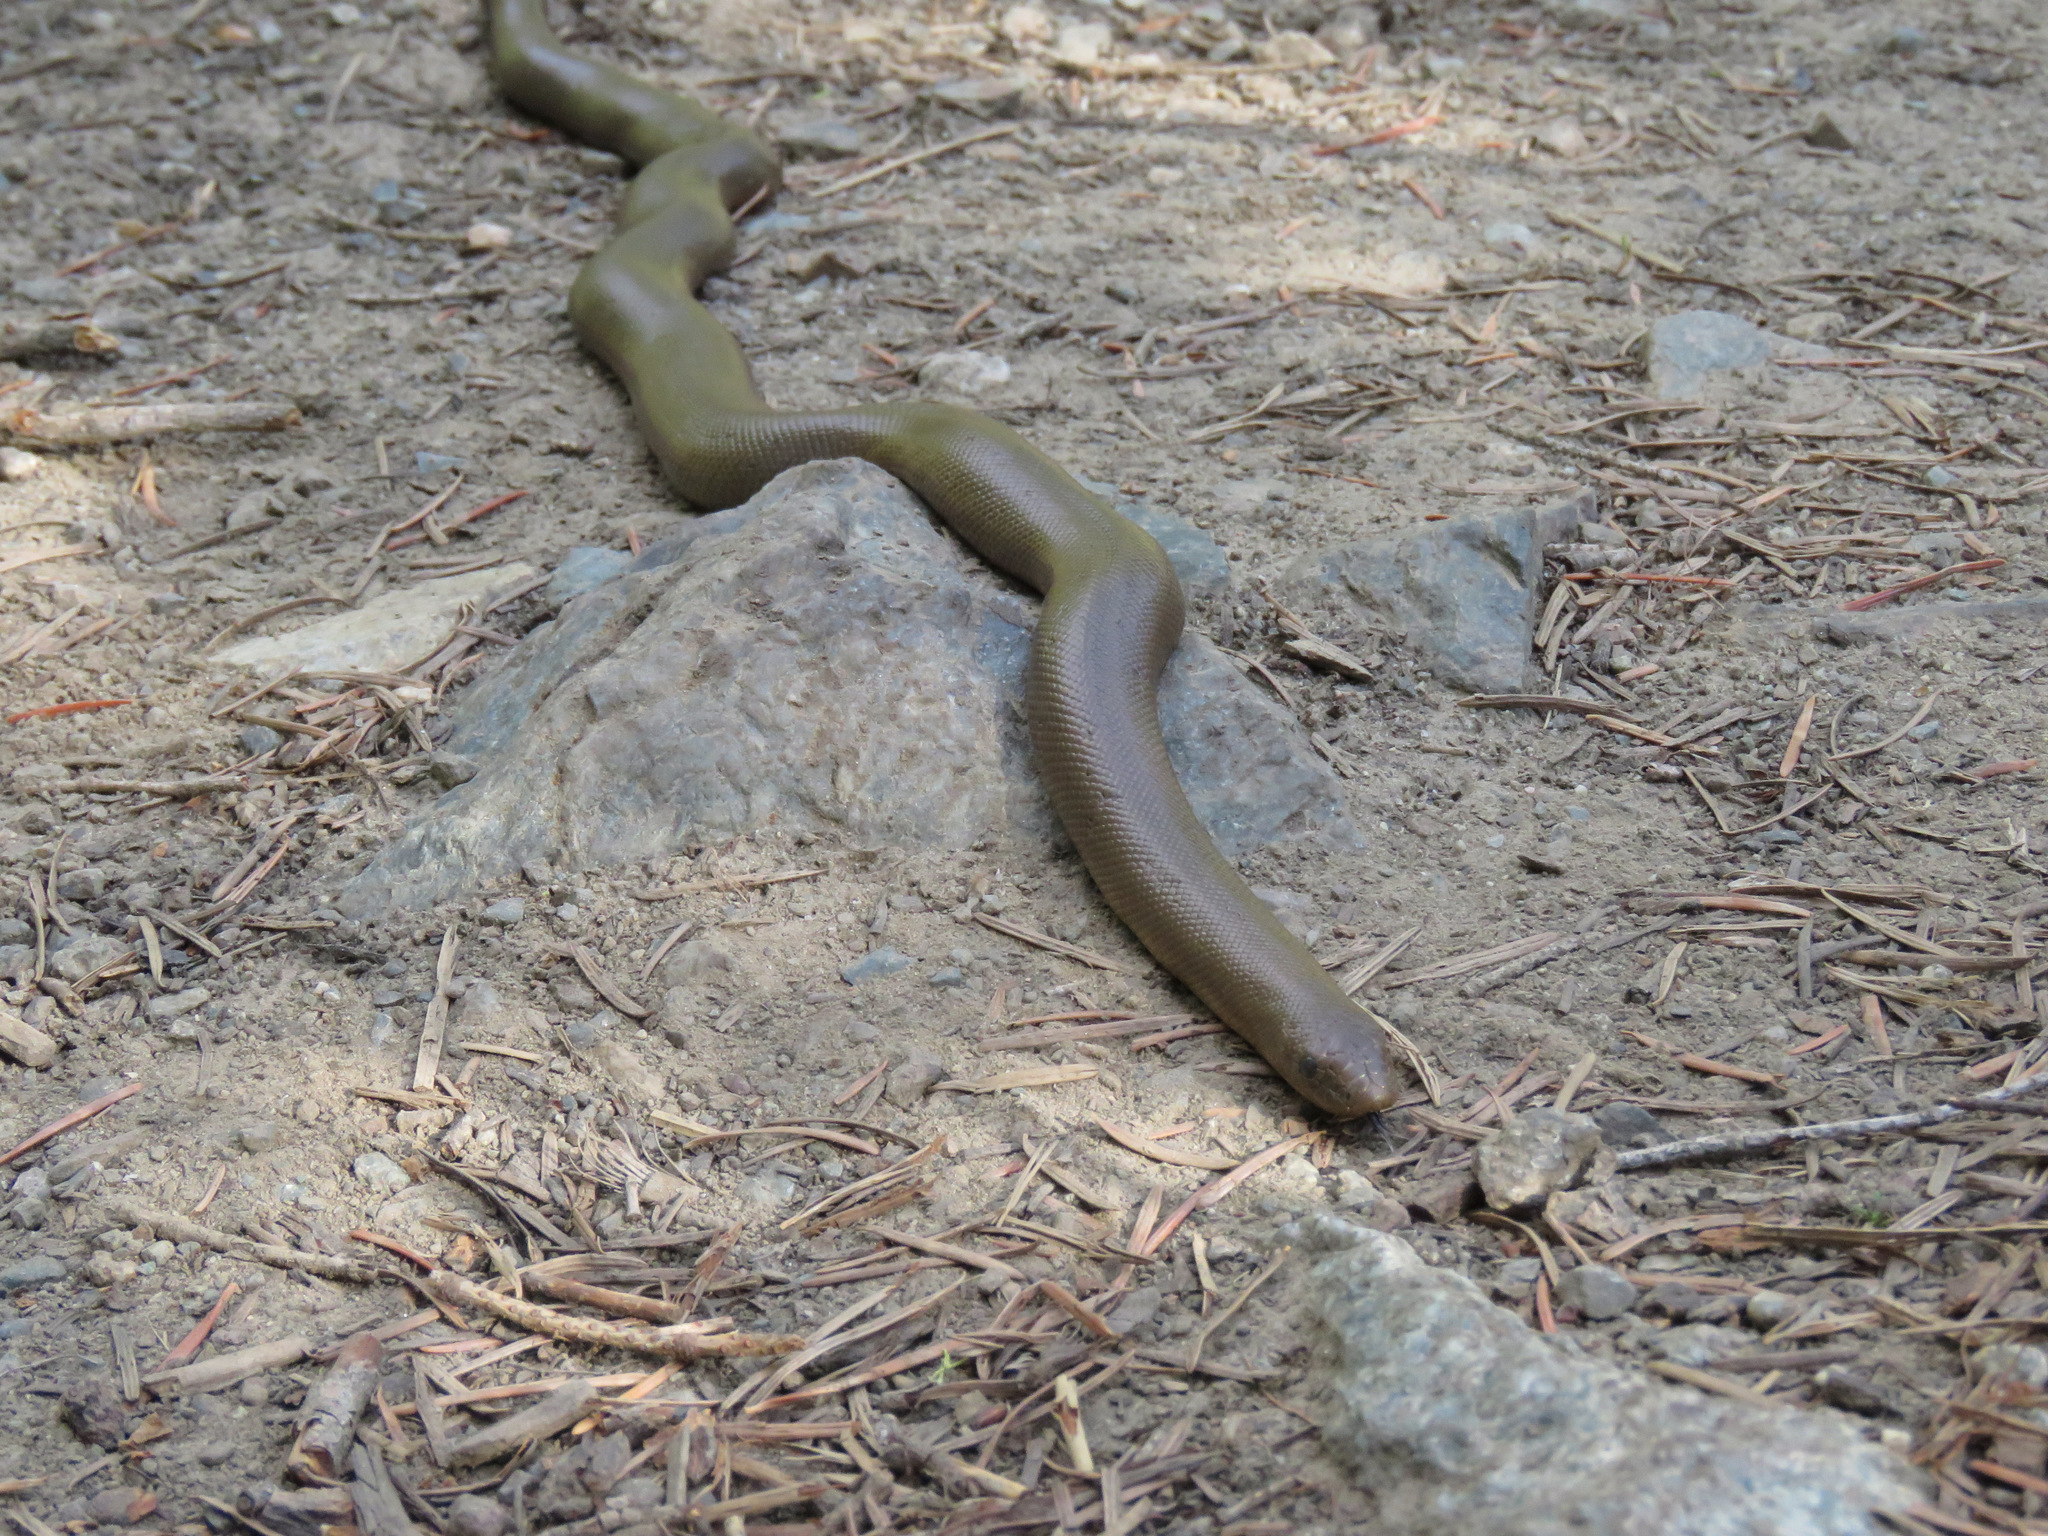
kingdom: Animalia
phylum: Chordata
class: Squamata
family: Boidae
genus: Charina
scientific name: Charina bottae
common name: Northern rubber boa
